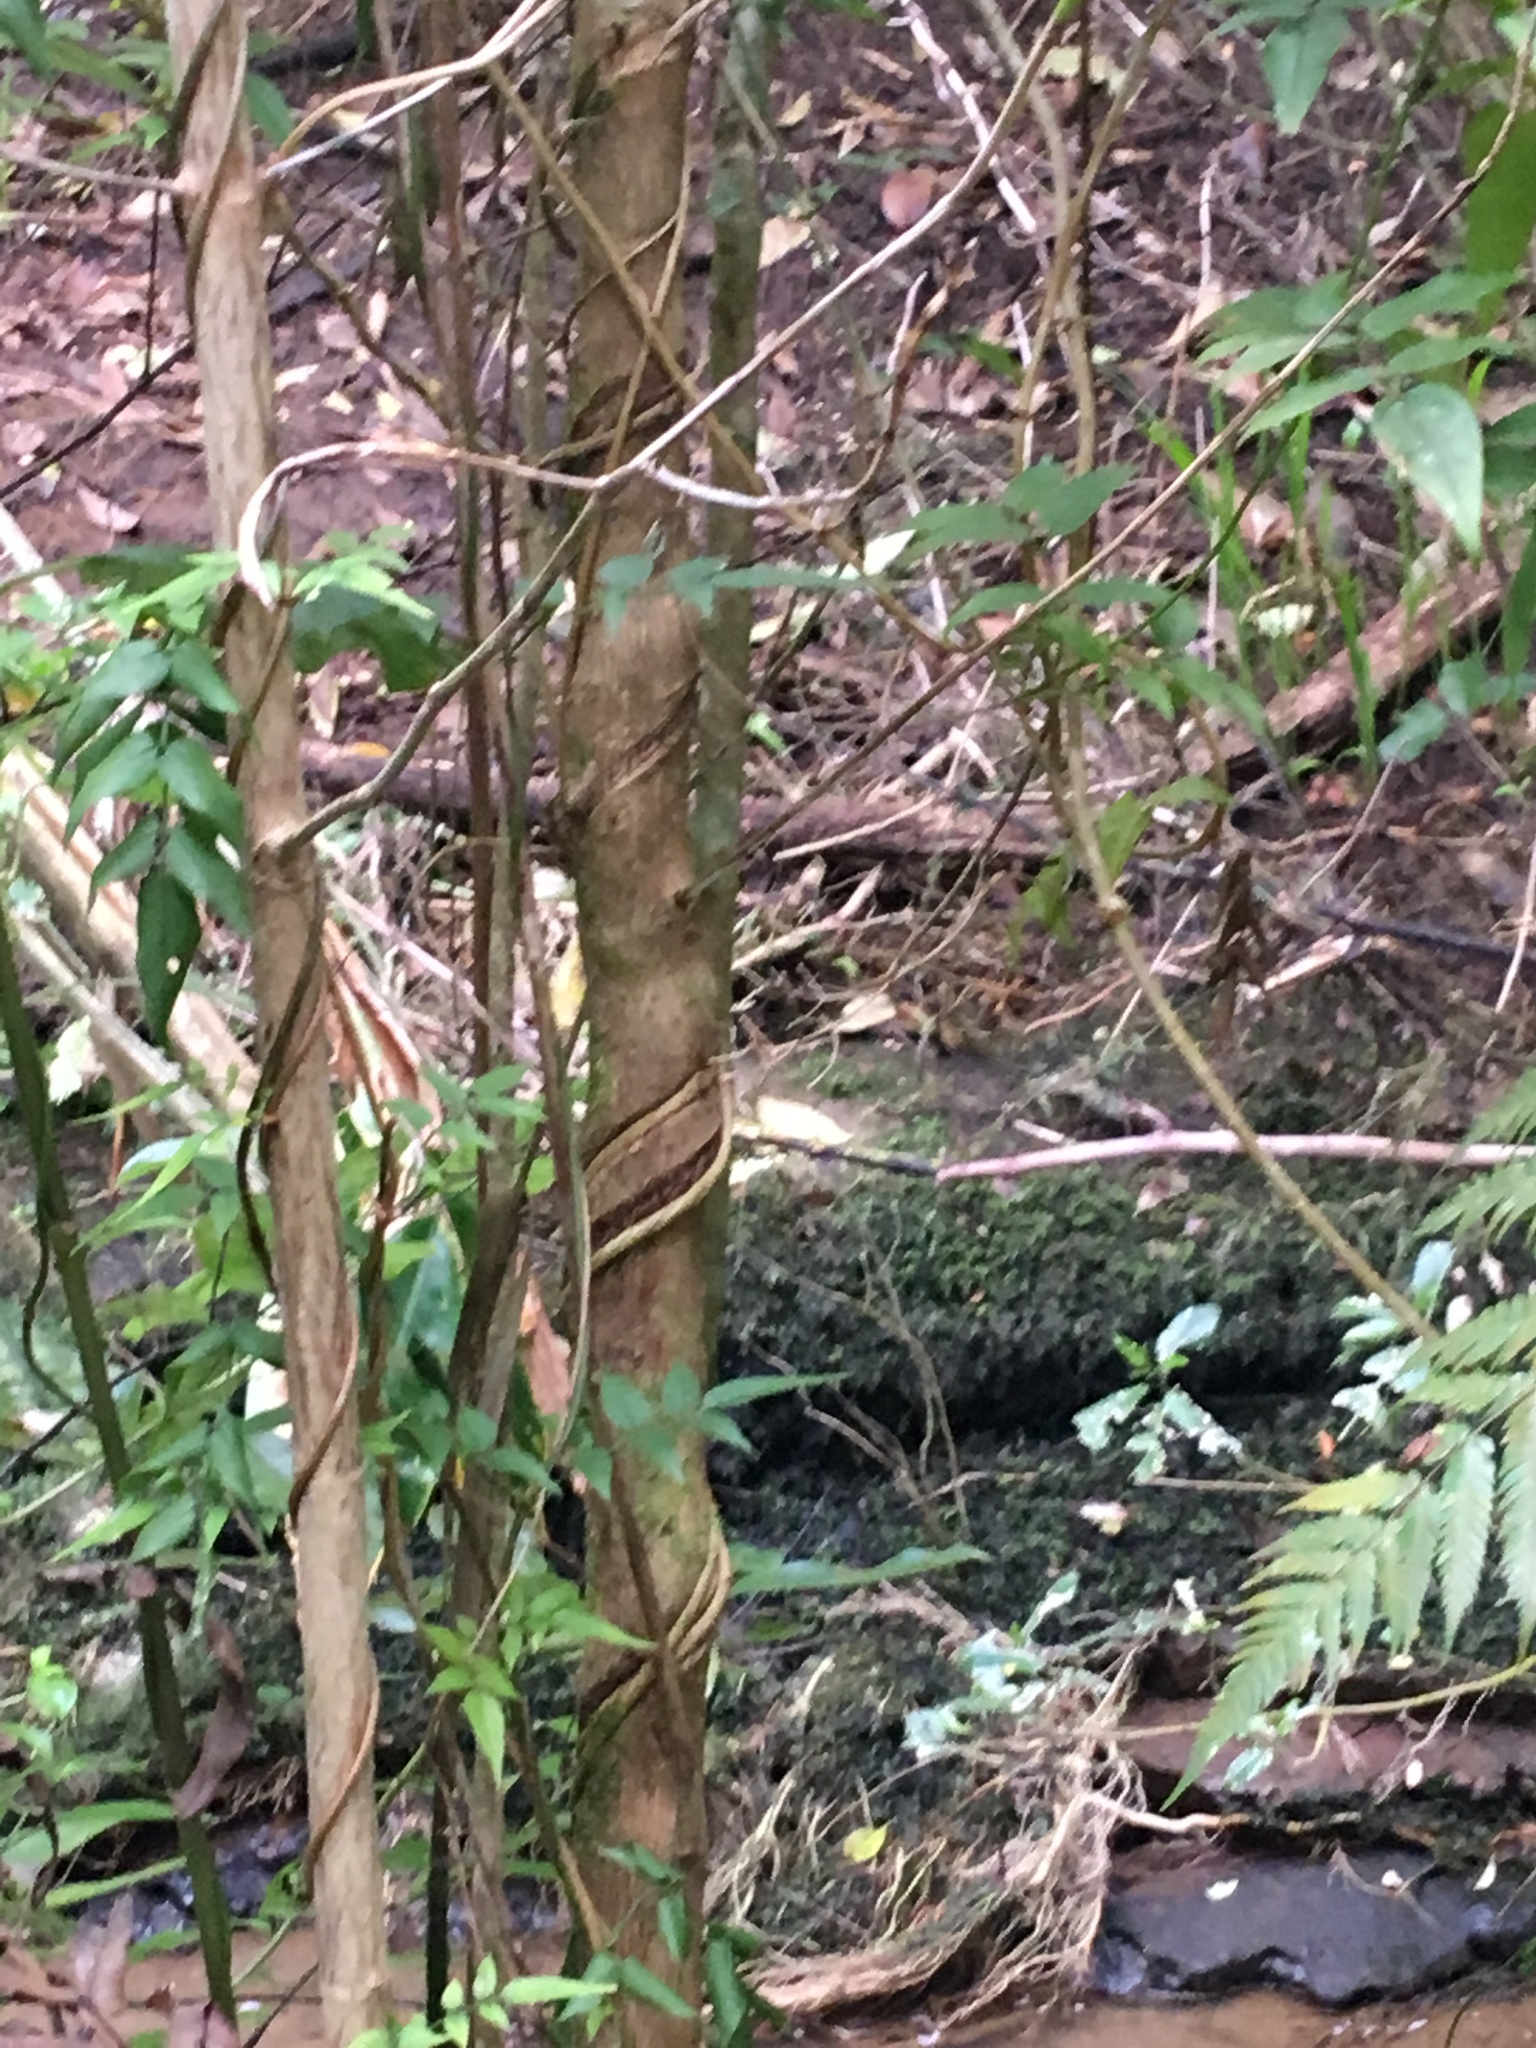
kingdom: Plantae
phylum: Tracheophyta
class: Magnoliopsida
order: Lamiales
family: Oleaceae
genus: Jasminum
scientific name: Jasminum polyanthum
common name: Pink jasmine
